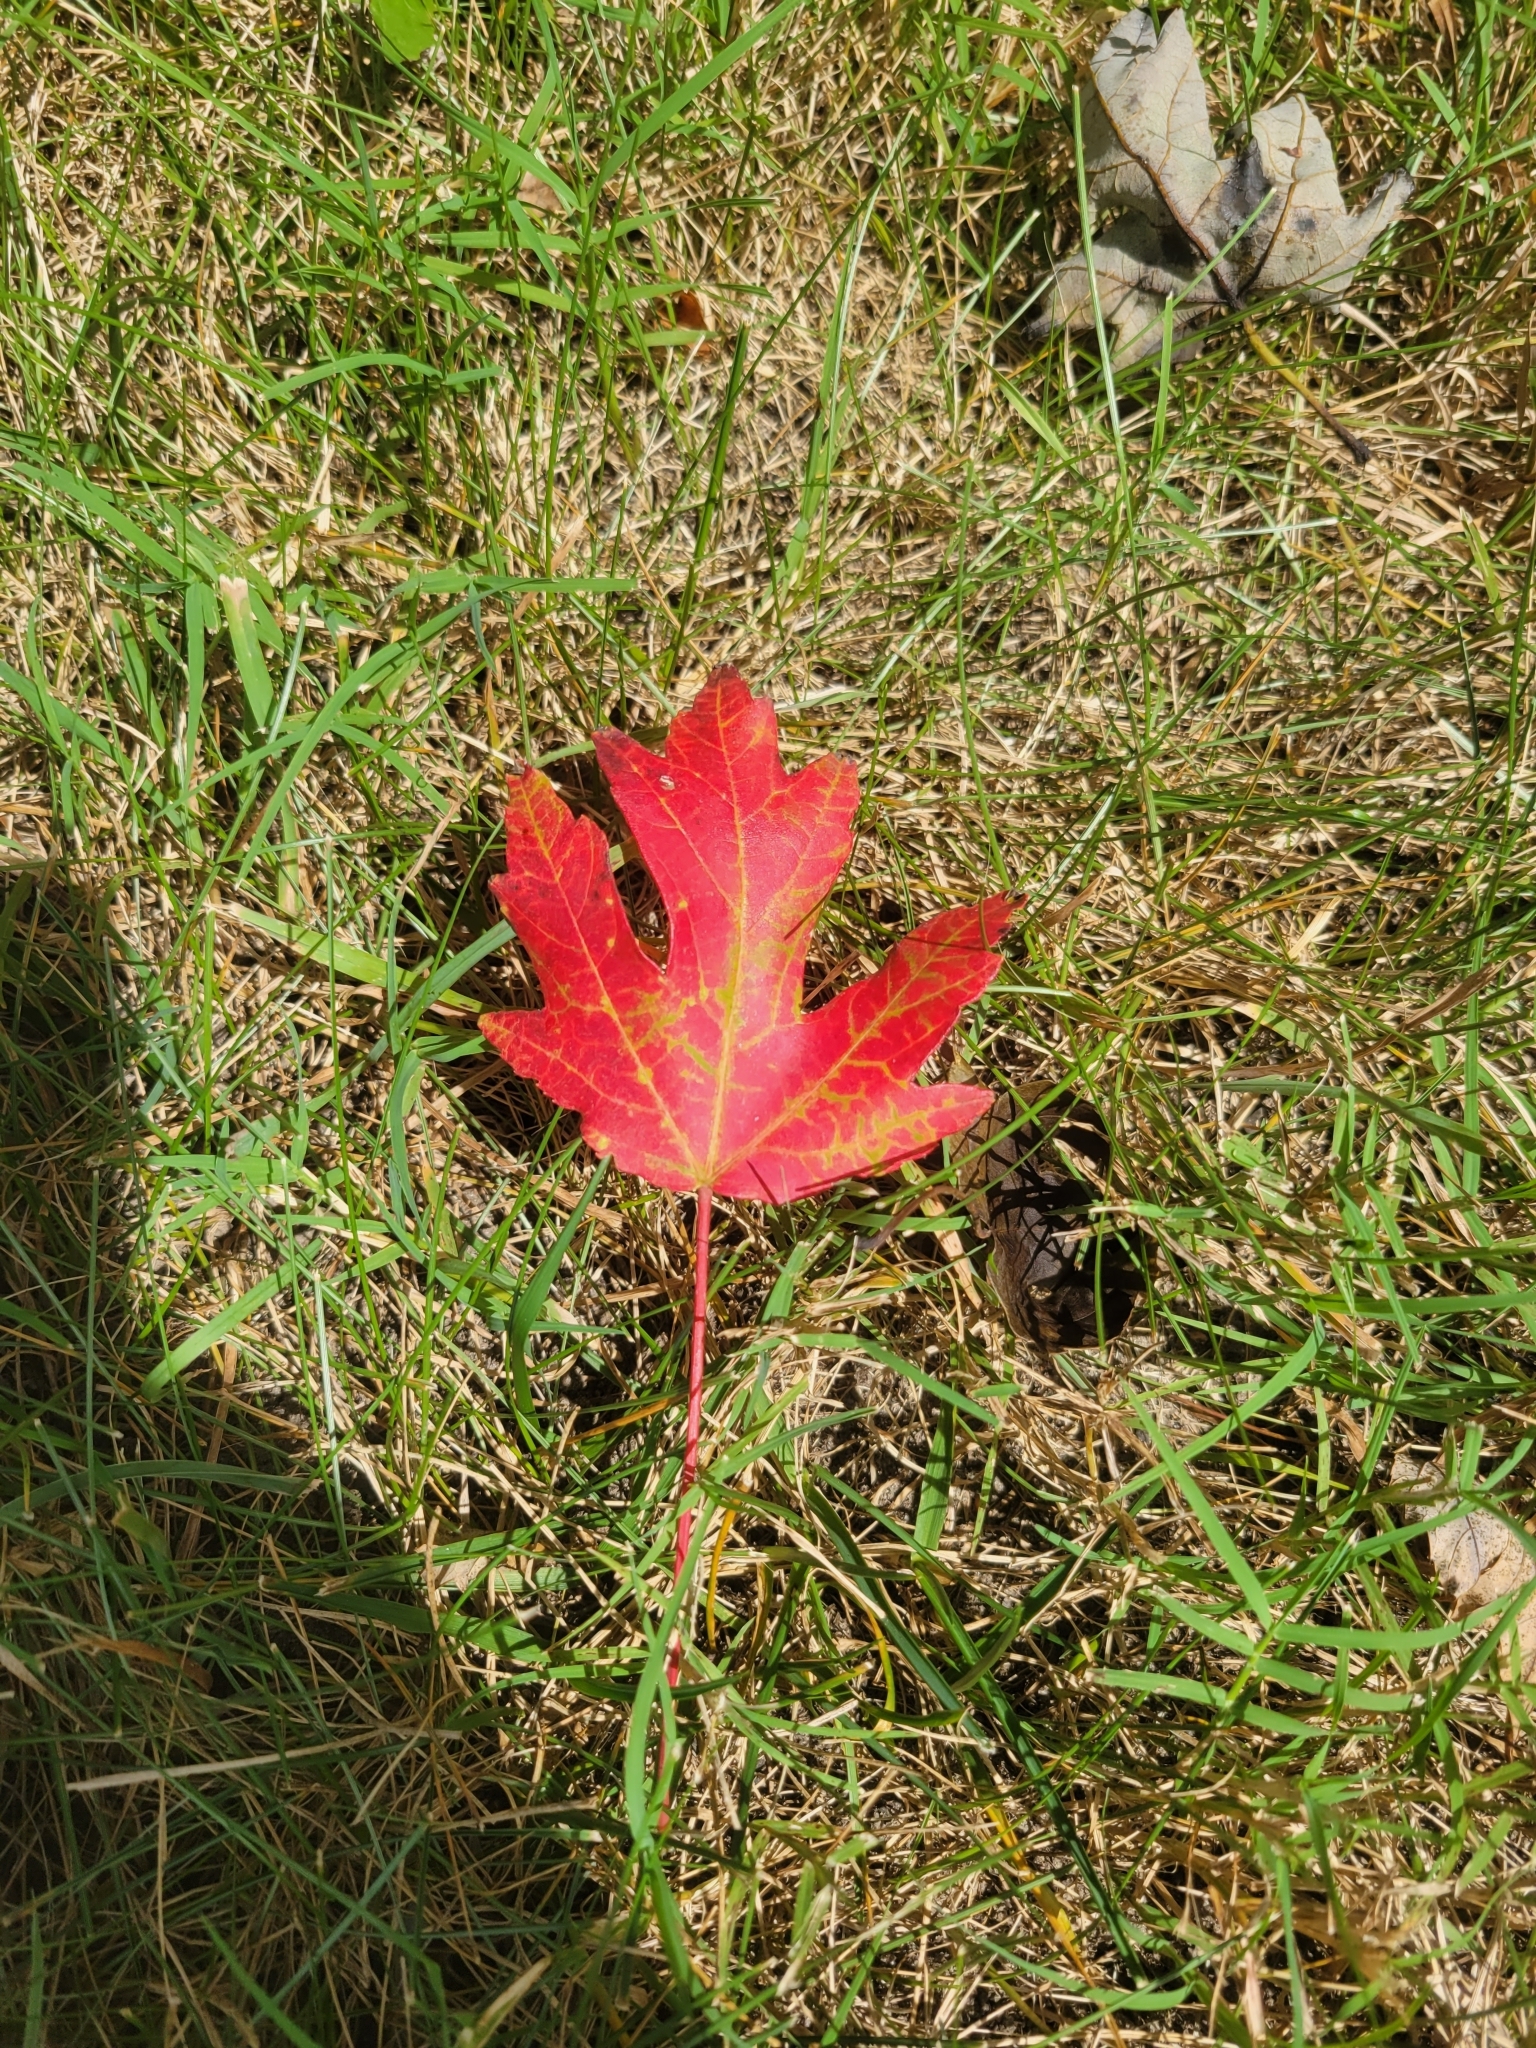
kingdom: Plantae
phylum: Tracheophyta
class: Magnoliopsida
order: Sapindales
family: Sapindaceae
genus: Acer
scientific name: Acer saccharinum
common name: Silver maple
